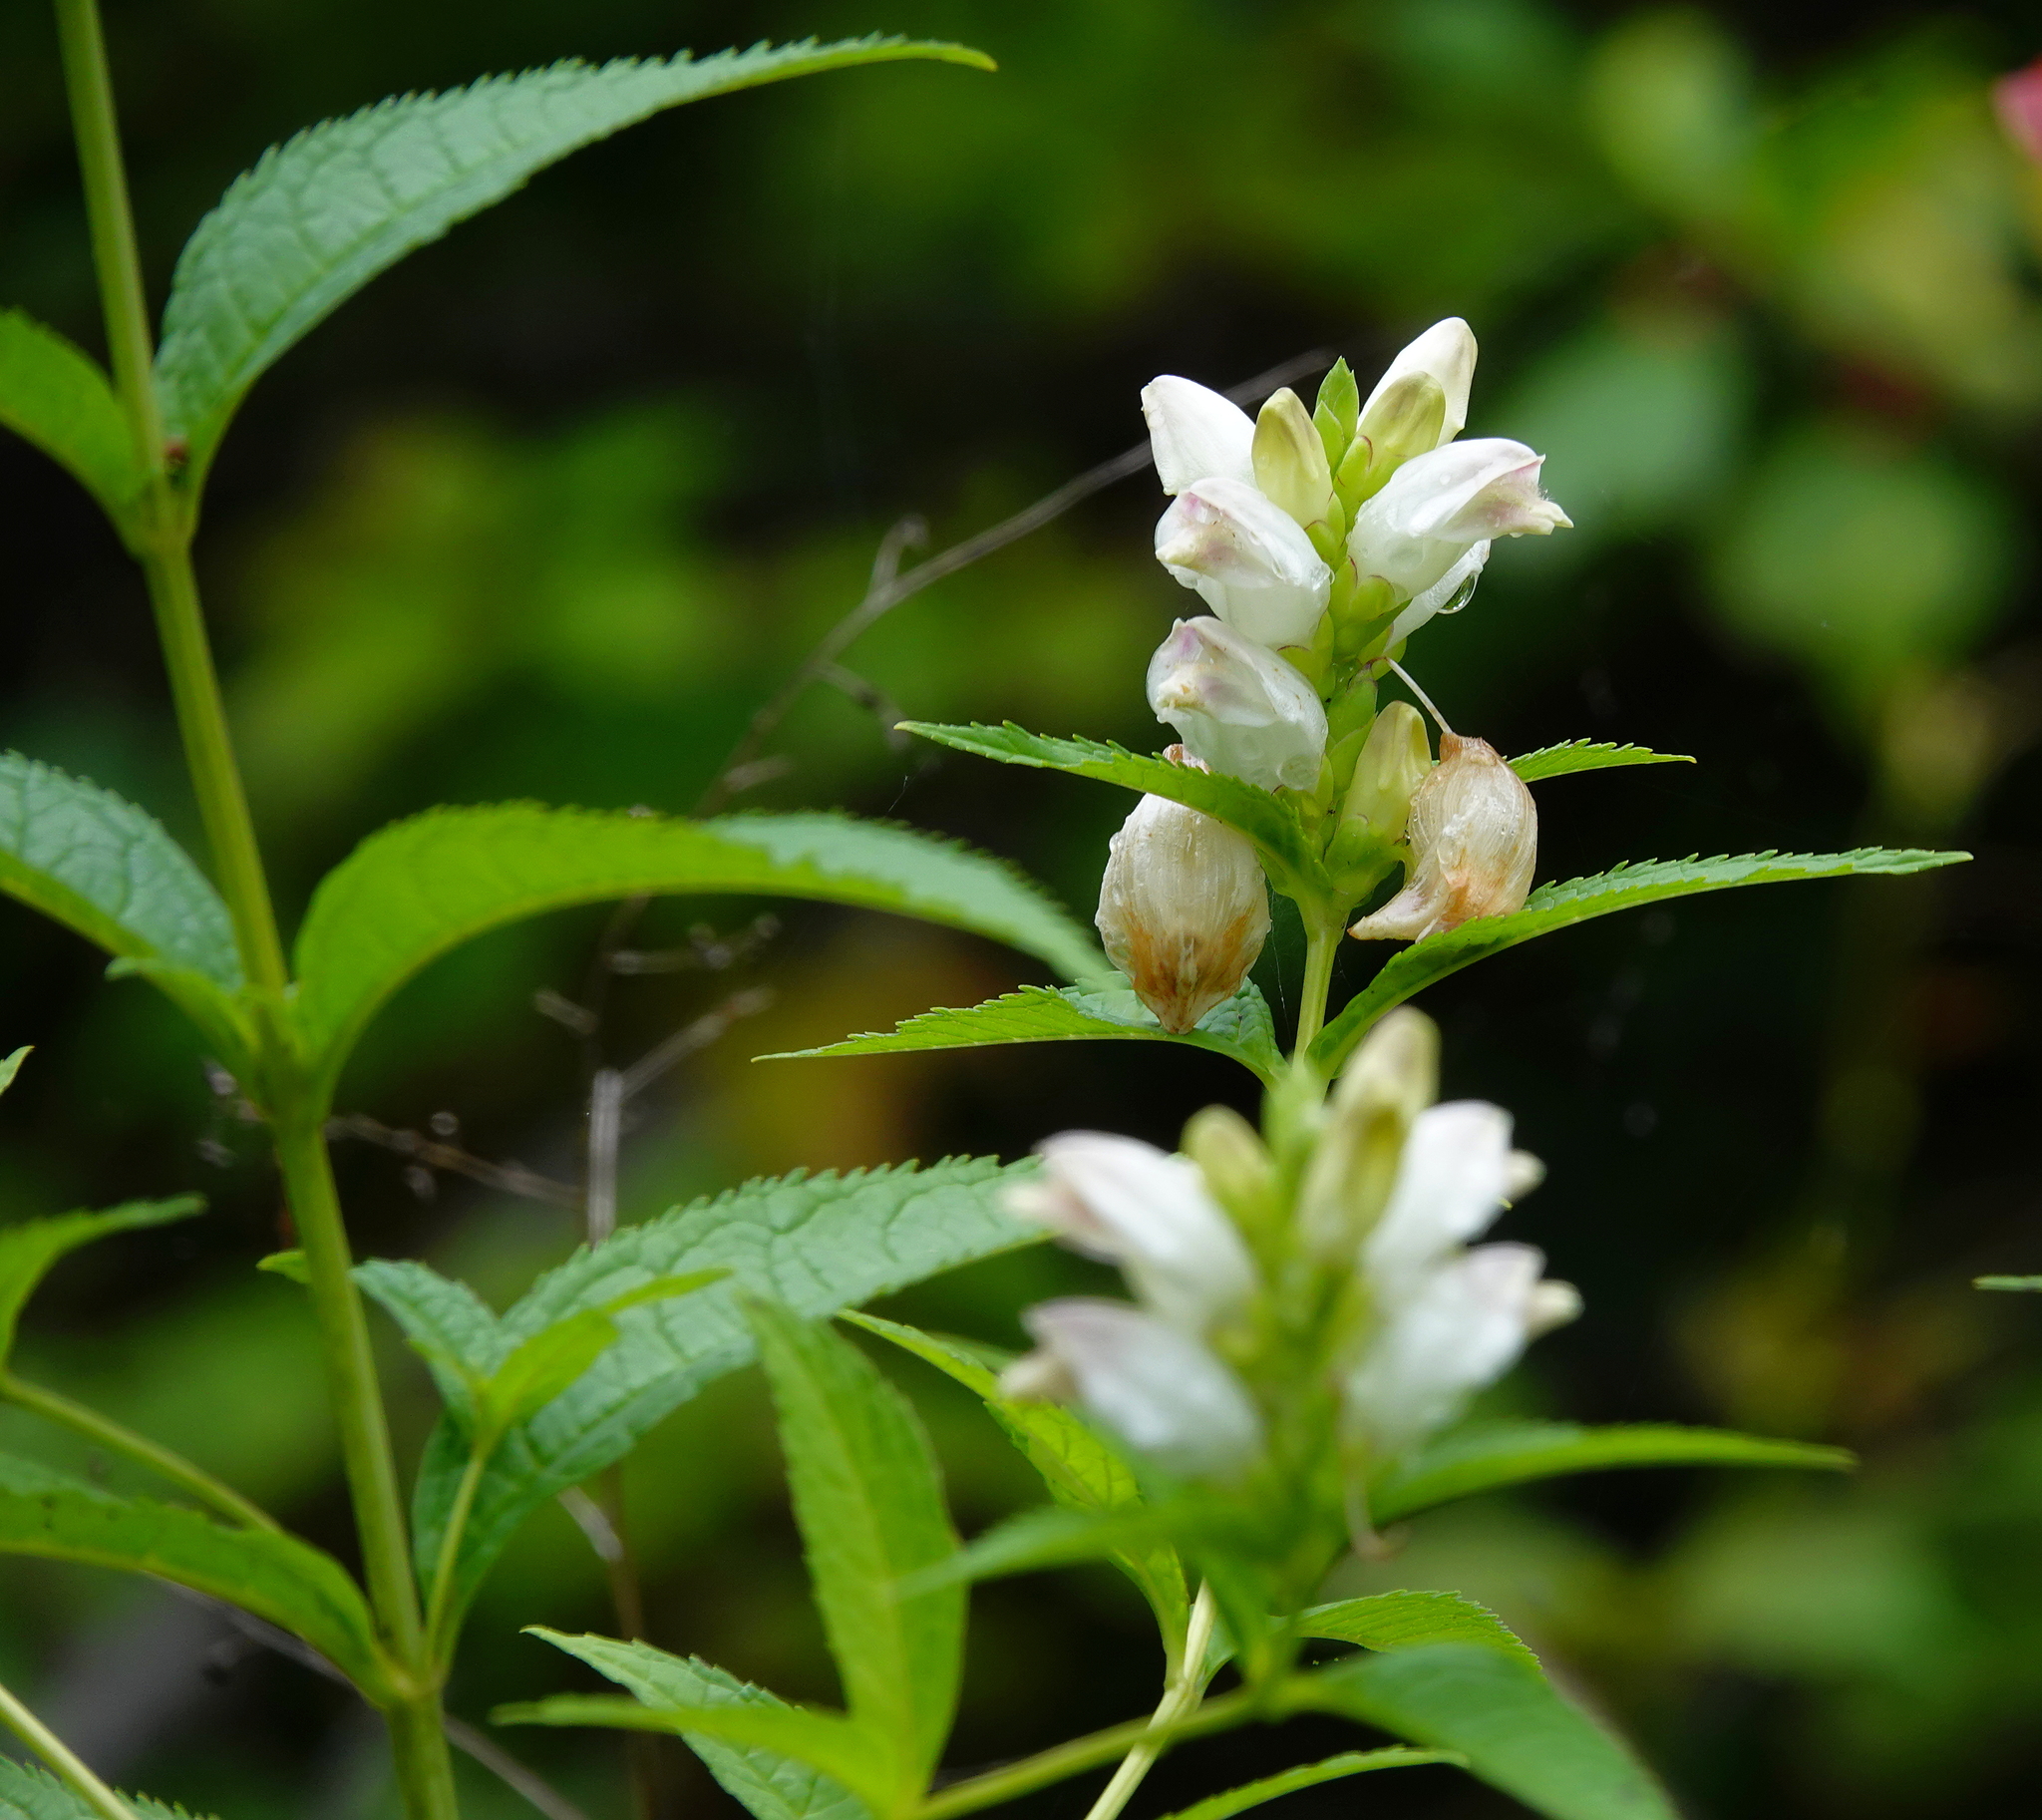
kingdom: Plantae
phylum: Tracheophyta
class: Magnoliopsida
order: Lamiales
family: Plantaginaceae
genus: Chelone
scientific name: Chelone glabra
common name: Snakehead
